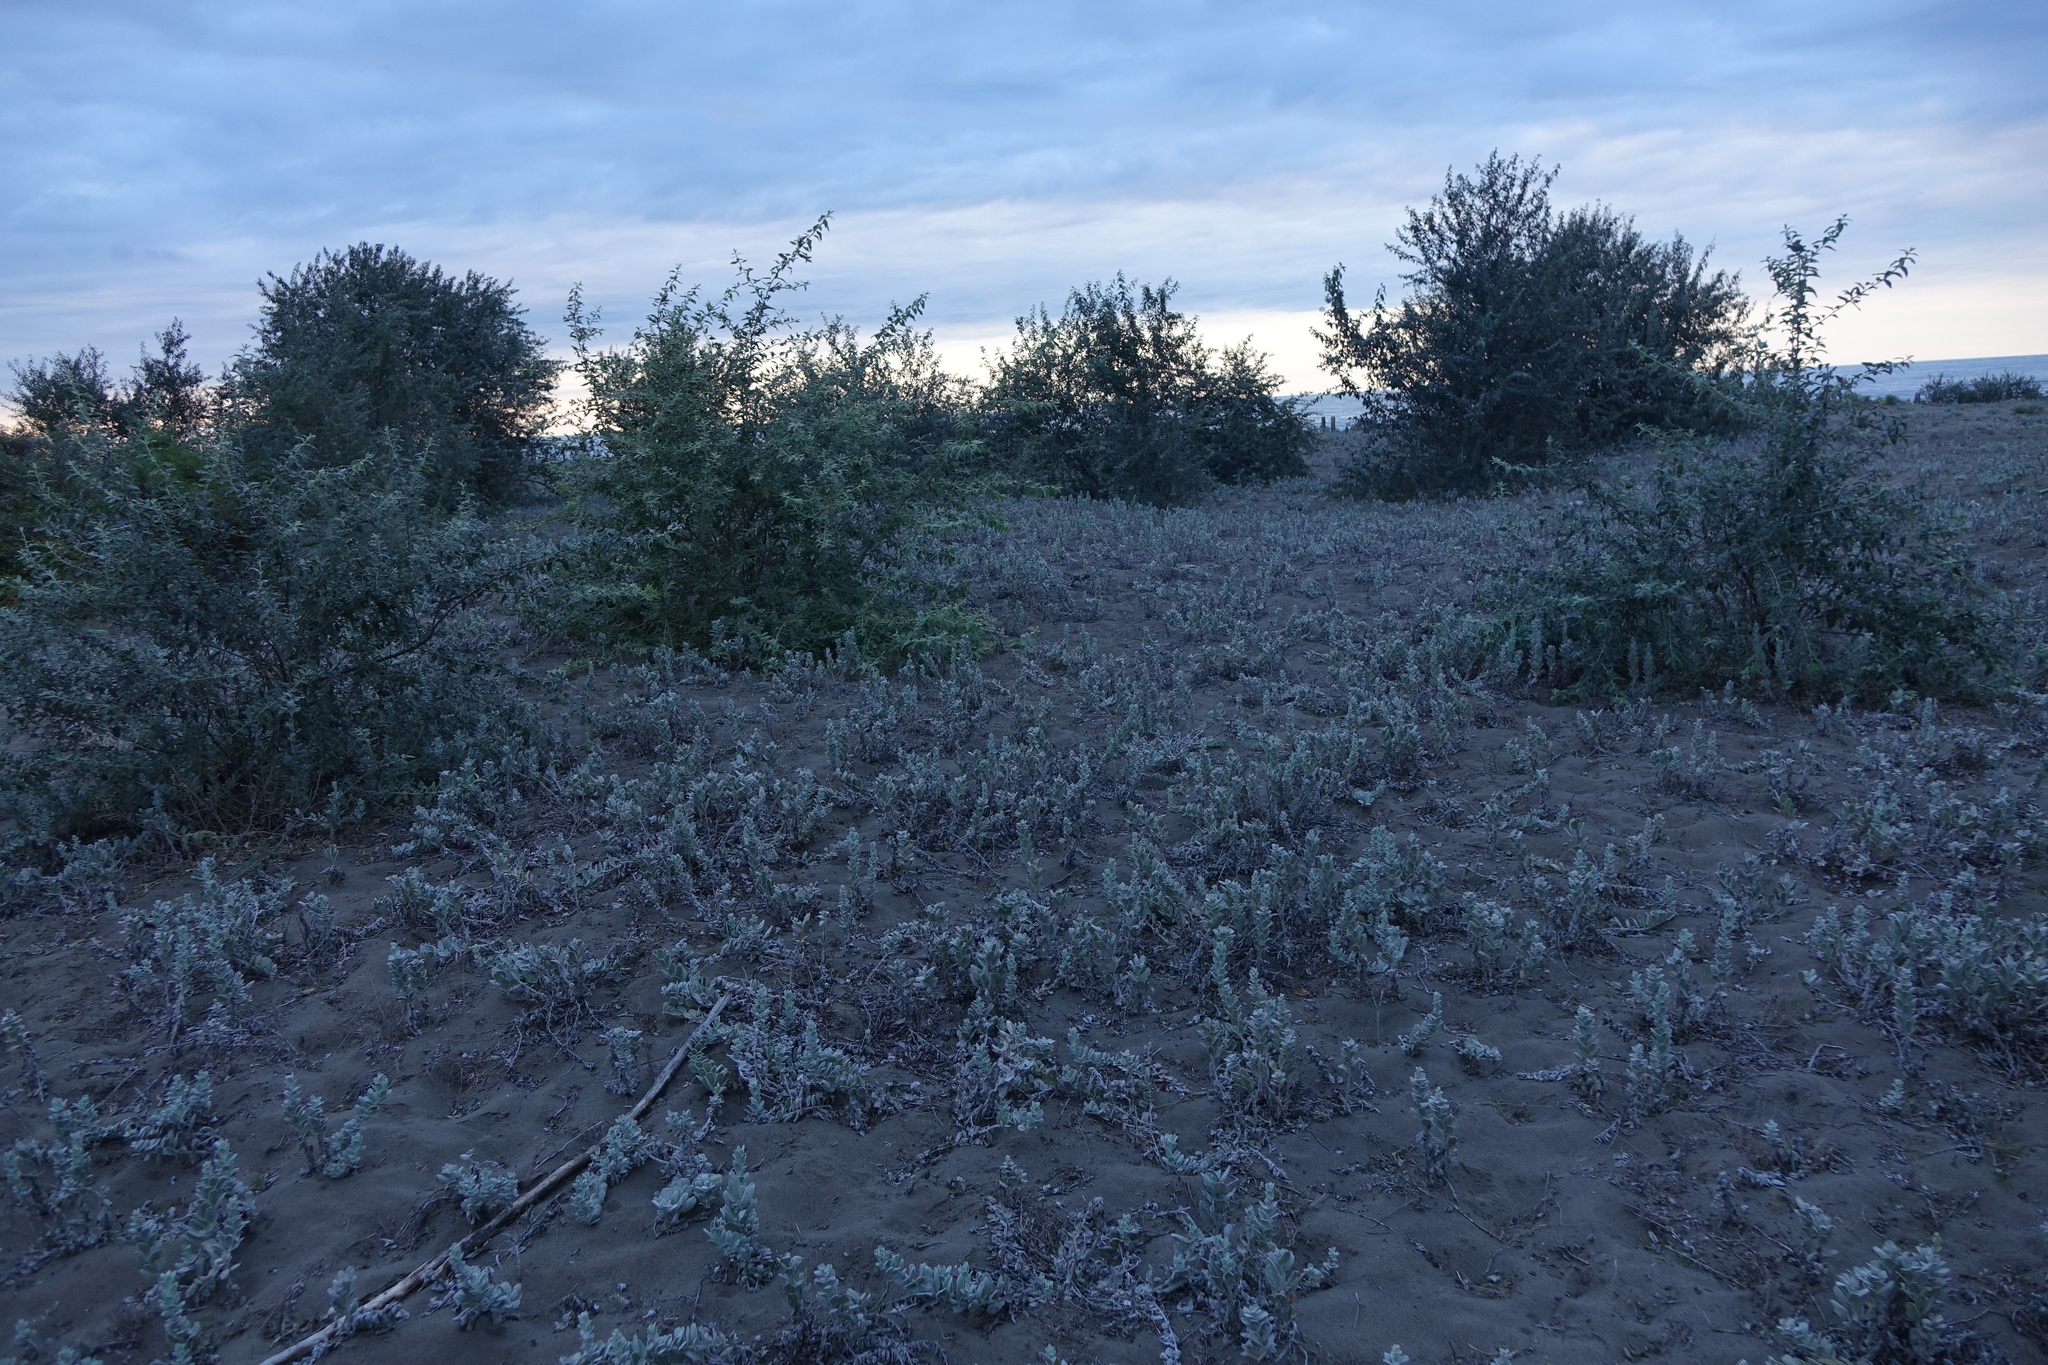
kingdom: Plantae
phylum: Tracheophyta
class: Magnoliopsida
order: Solanales
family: Convolvulaceae
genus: Convolvulus
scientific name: Convolvulus persicus
